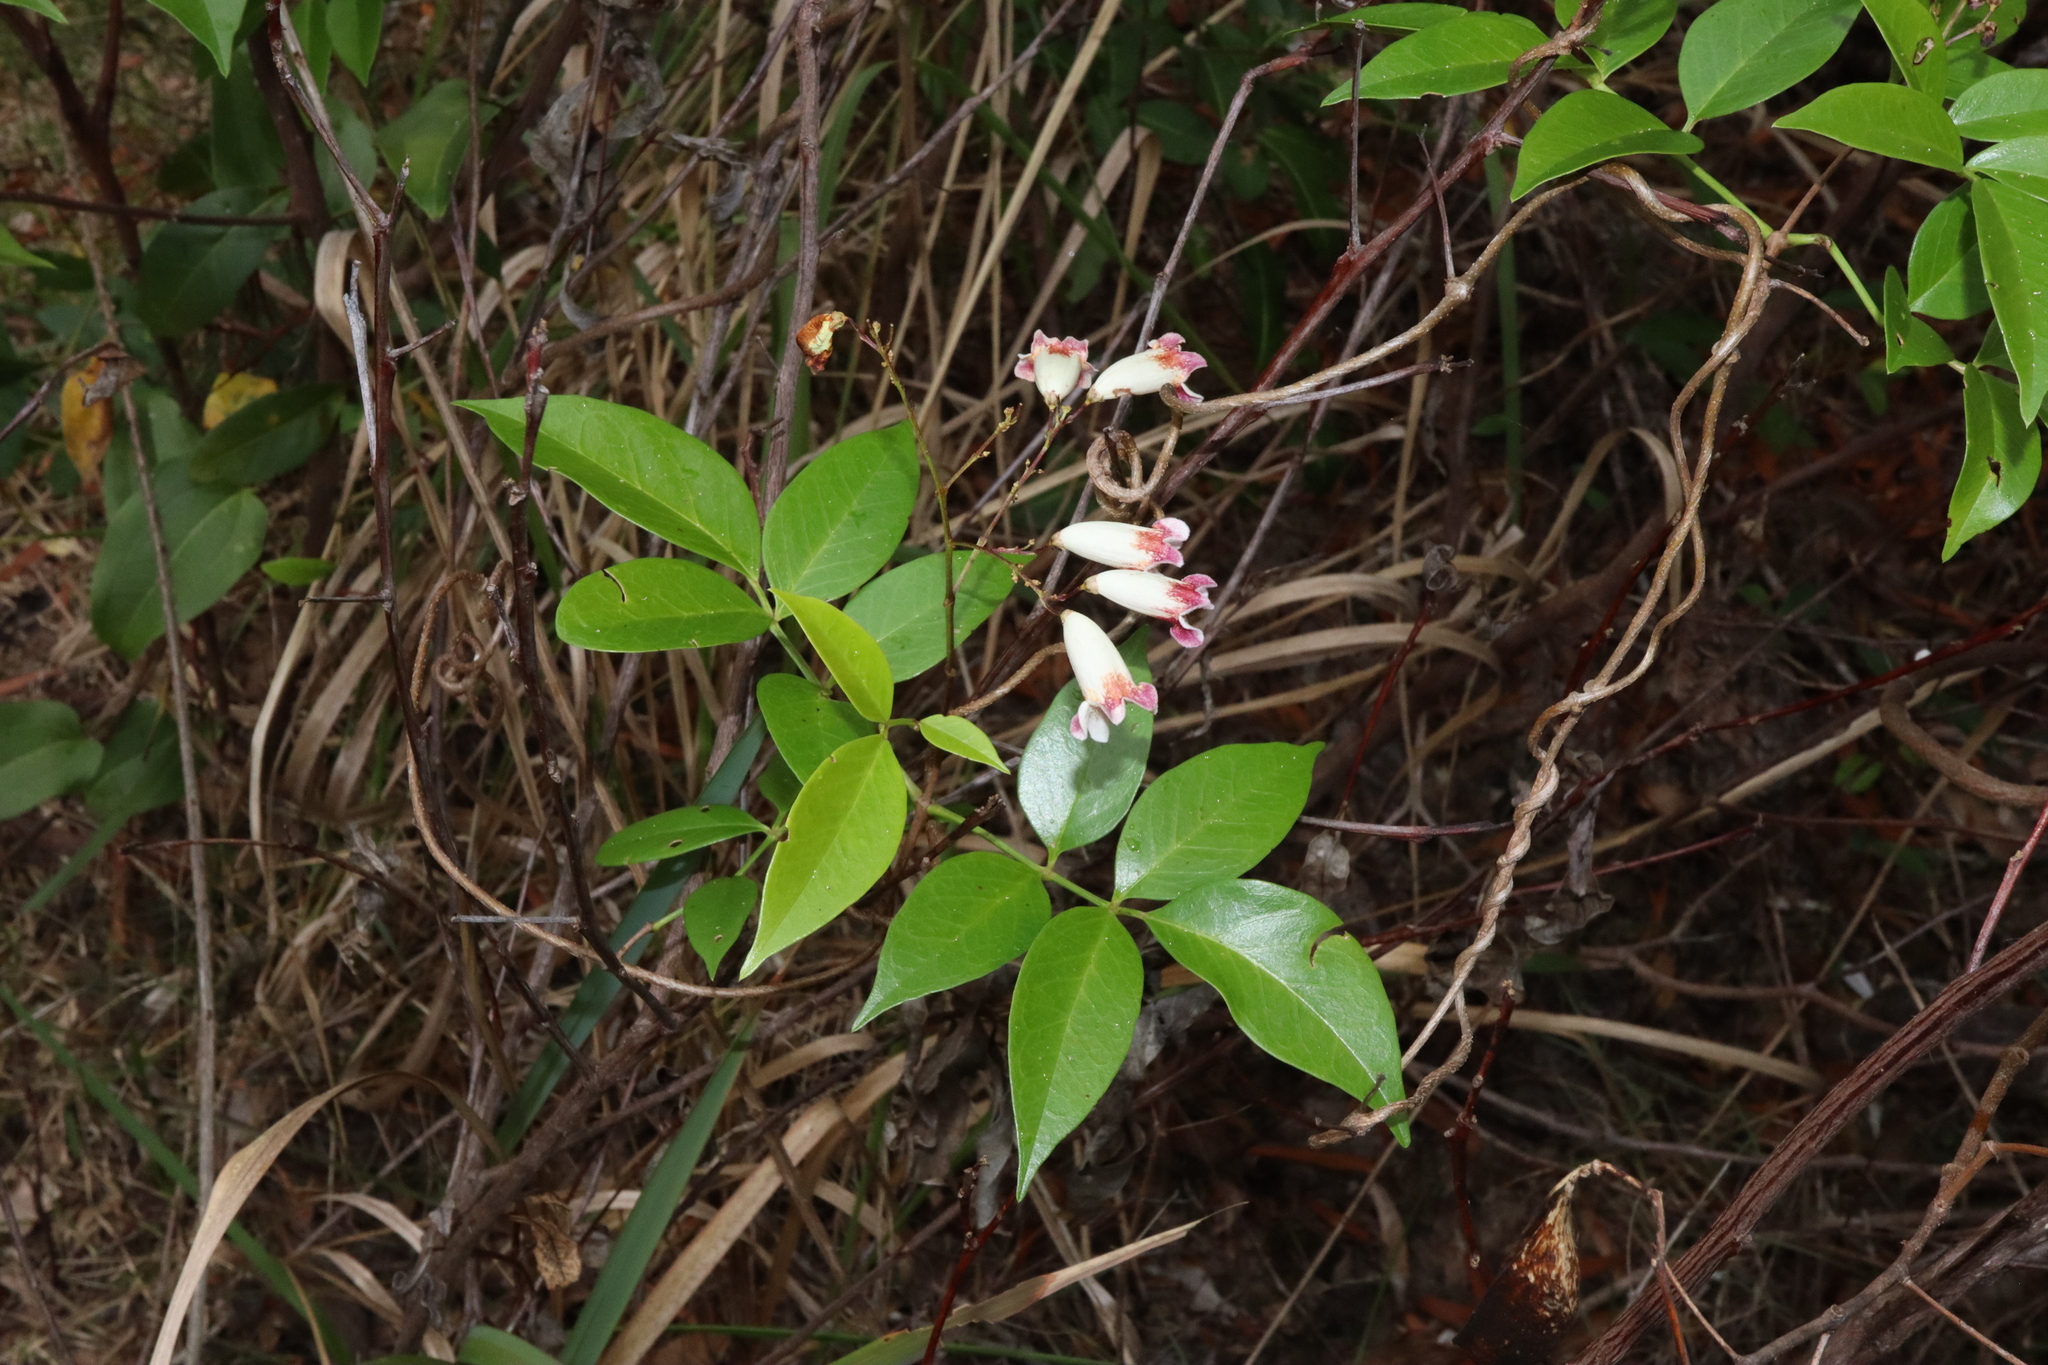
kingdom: Plantae
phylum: Tracheophyta
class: Magnoliopsida
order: Lamiales
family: Bignoniaceae
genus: Pandorea
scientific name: Pandorea pandorana
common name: Wonga-wonga-vine
